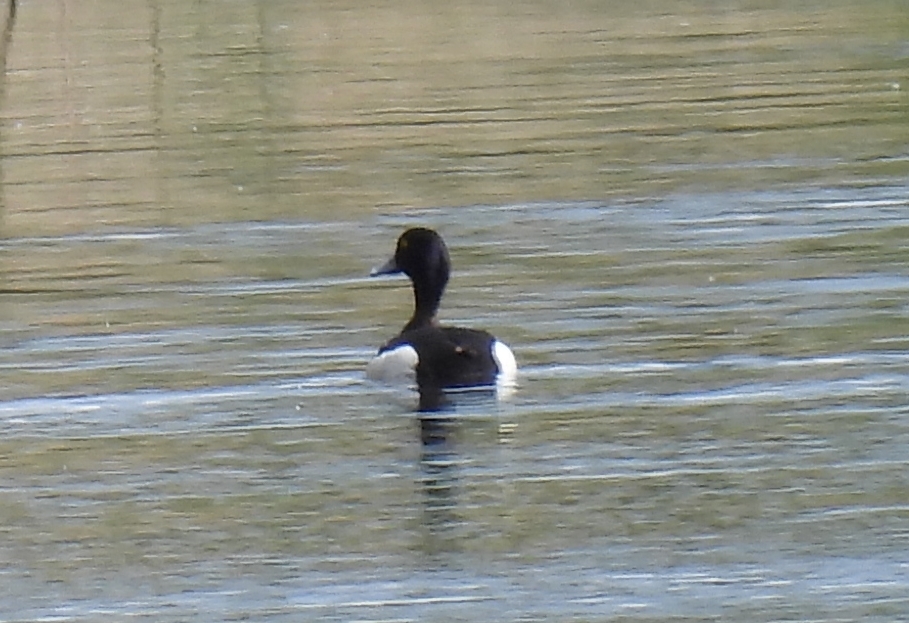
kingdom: Animalia
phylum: Chordata
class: Aves
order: Anseriformes
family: Anatidae
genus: Aythya
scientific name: Aythya fuligula
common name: Tufted duck
